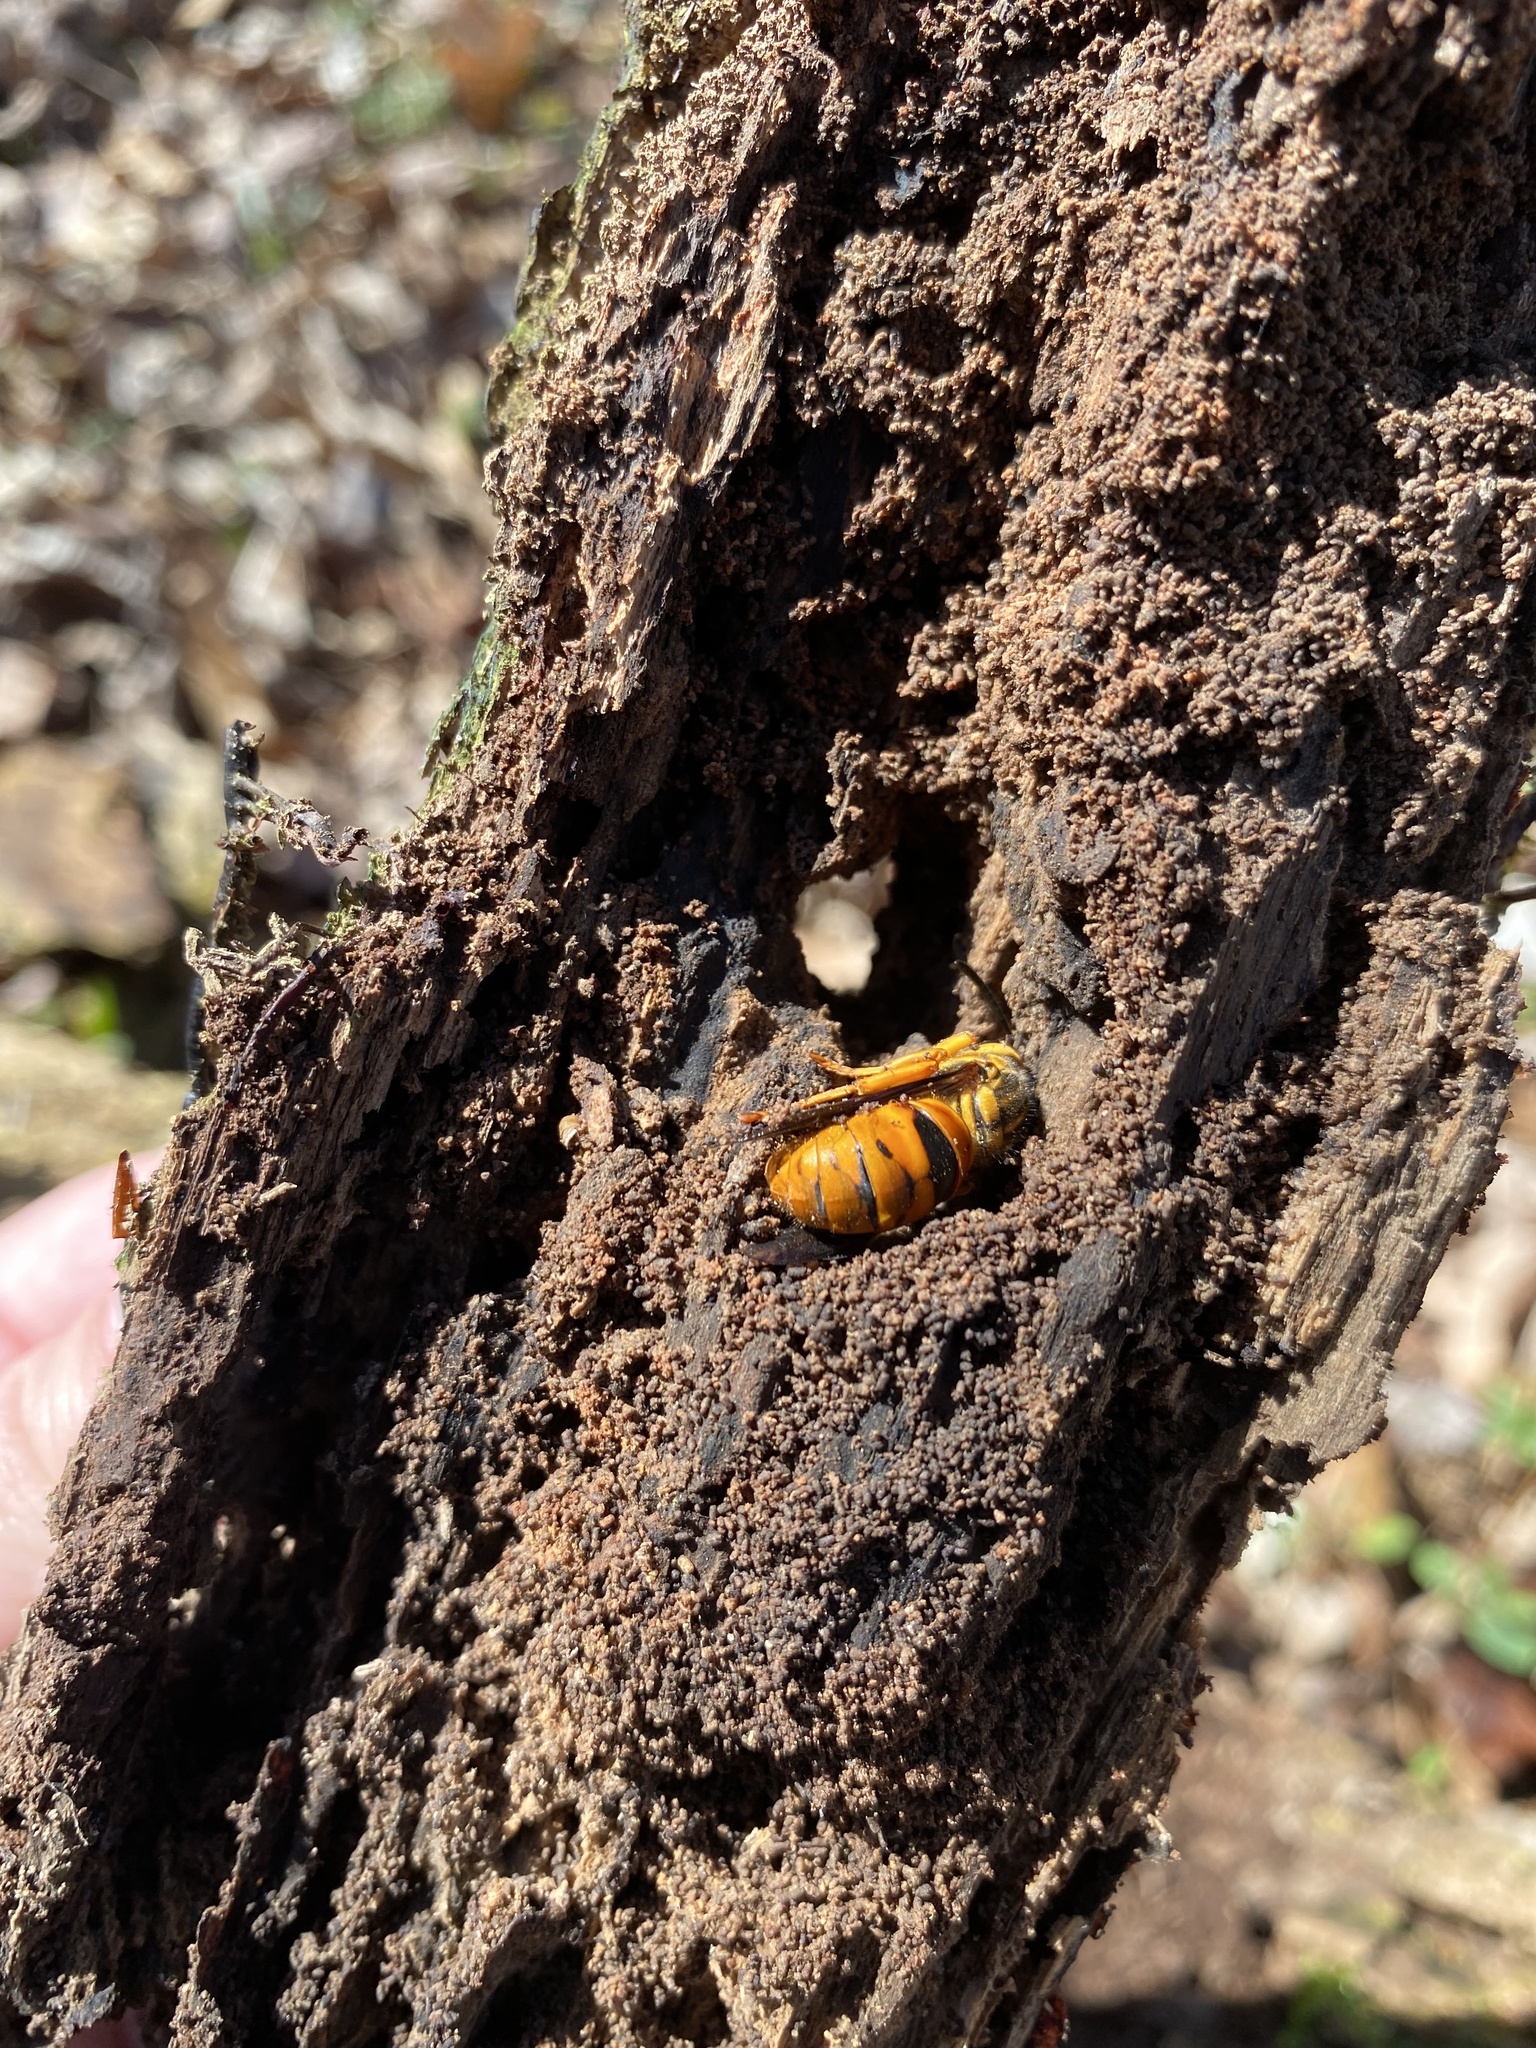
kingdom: Animalia
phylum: Arthropoda
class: Insecta
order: Hymenoptera
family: Vespidae
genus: Vespula
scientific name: Vespula squamosa
